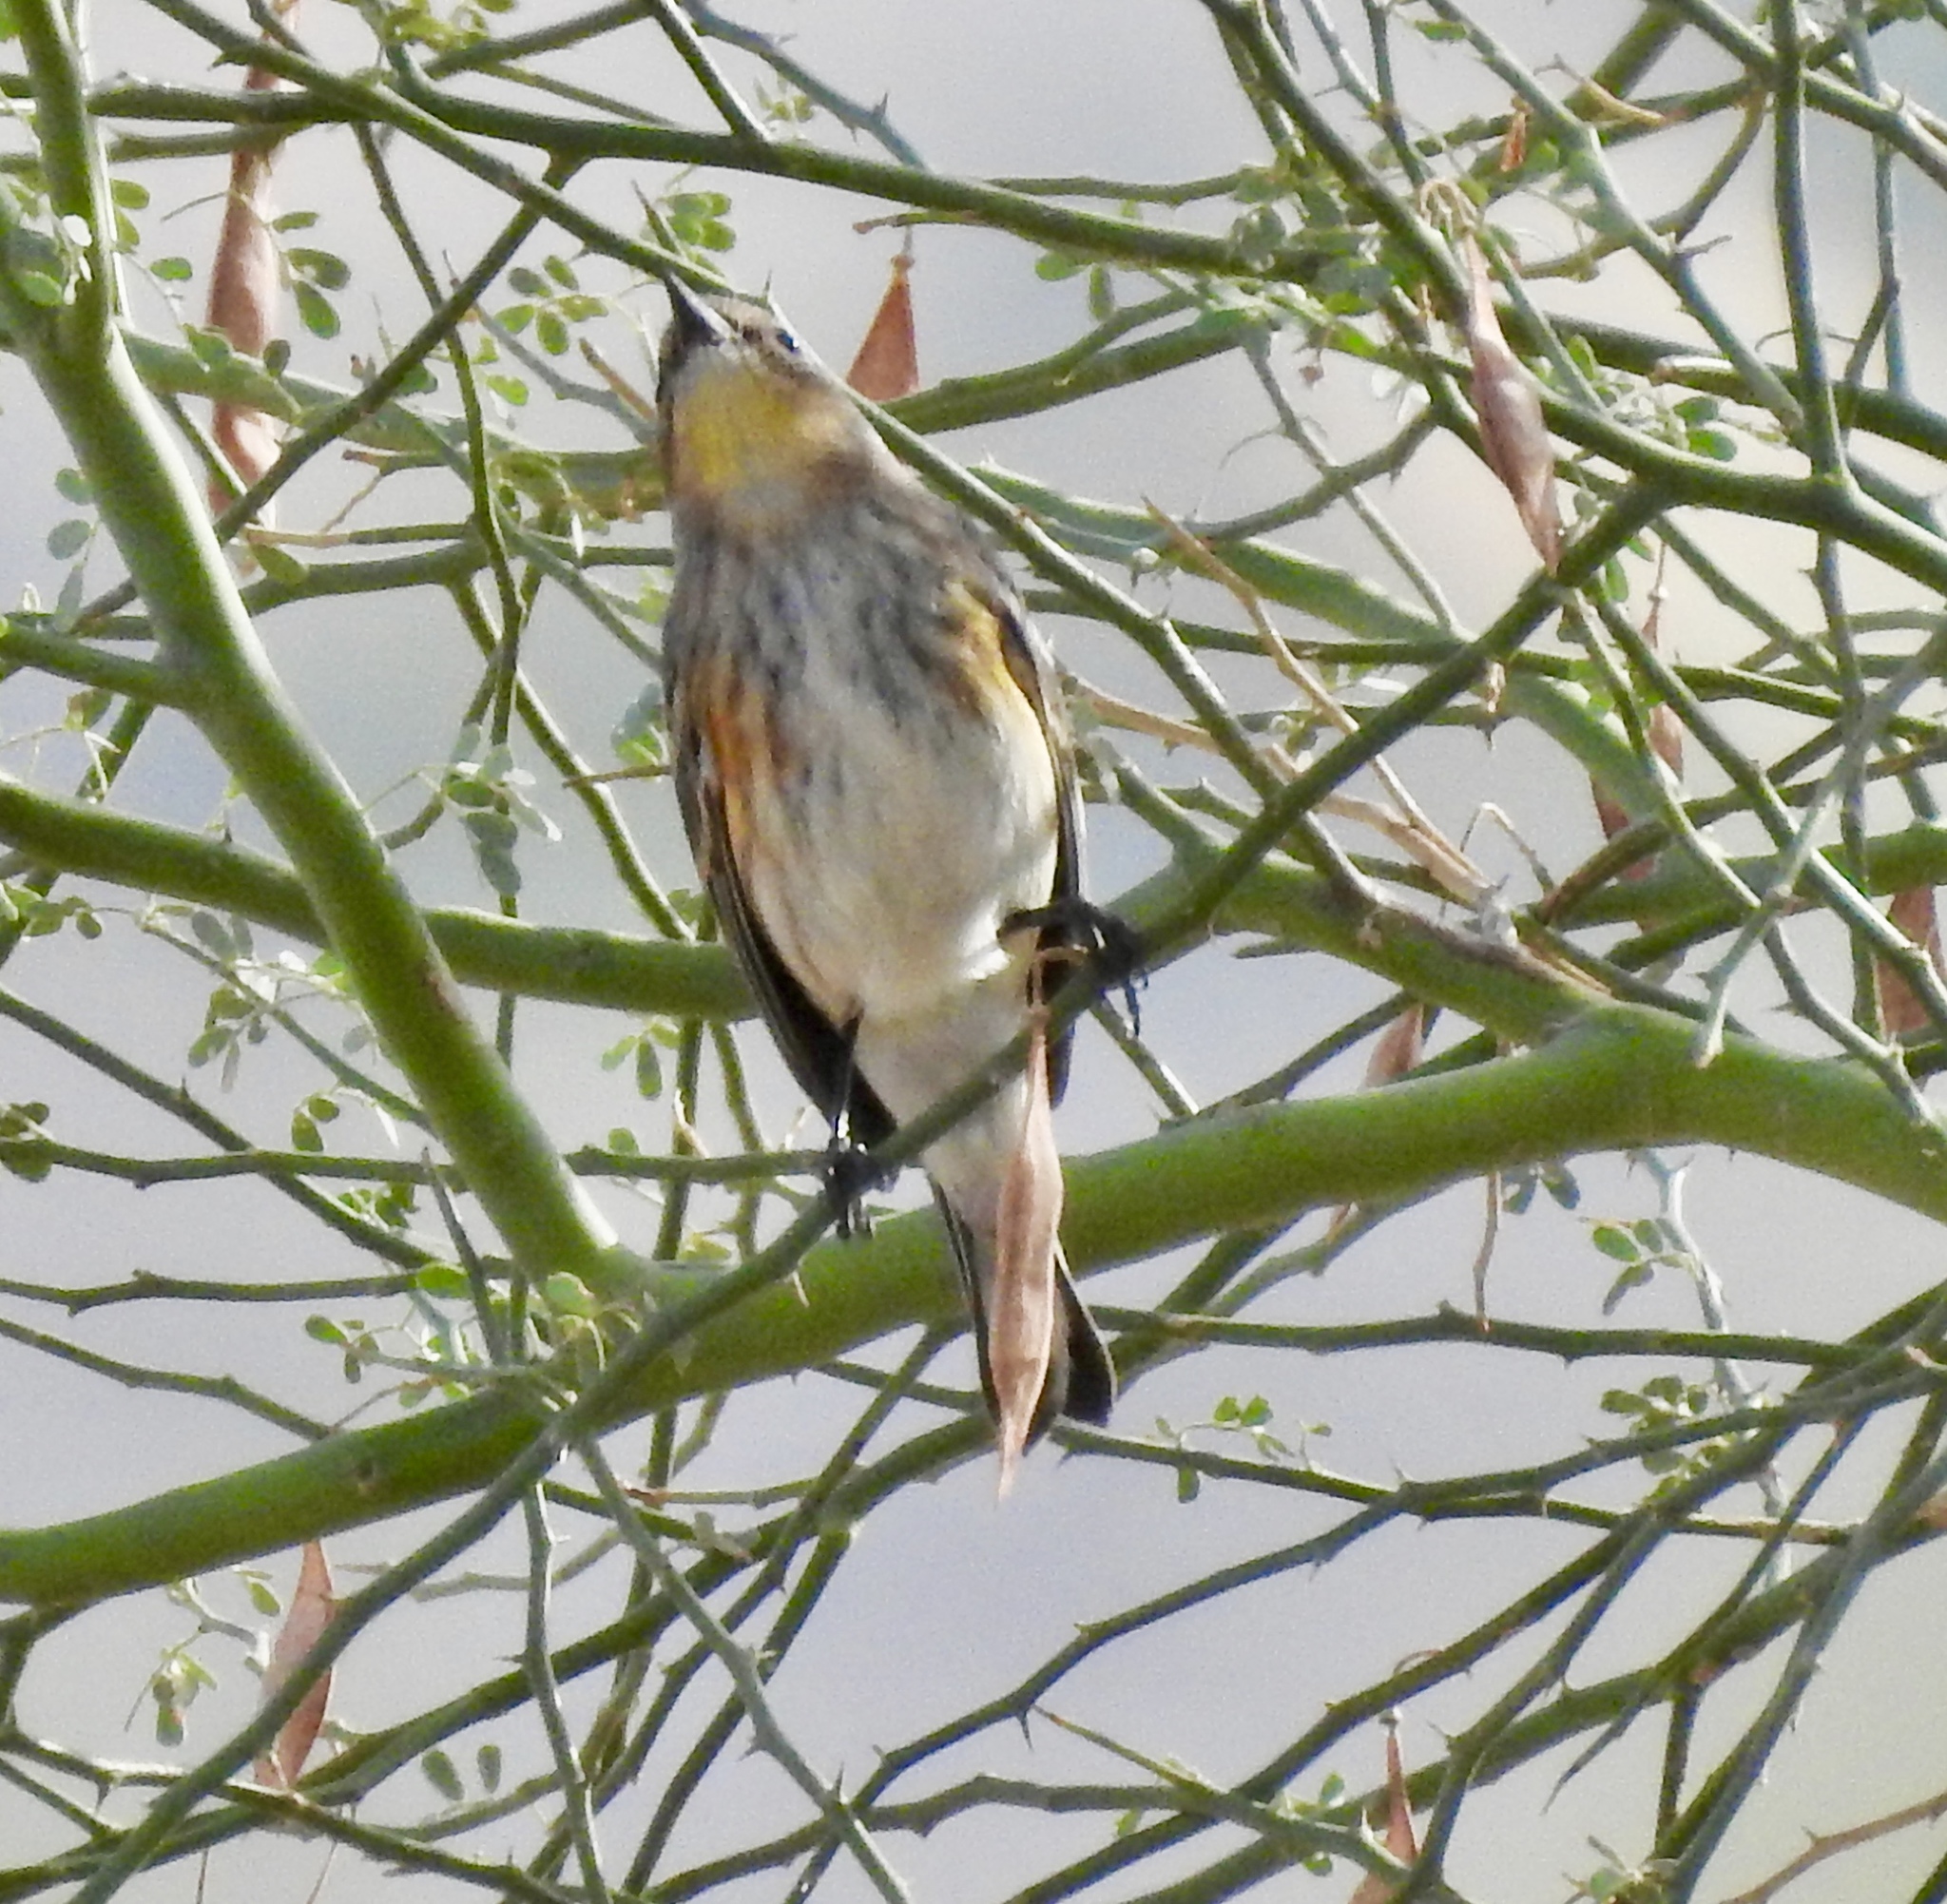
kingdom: Animalia
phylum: Chordata
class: Aves
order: Passeriformes
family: Parulidae
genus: Setophaga
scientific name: Setophaga coronata
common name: Myrtle warbler
